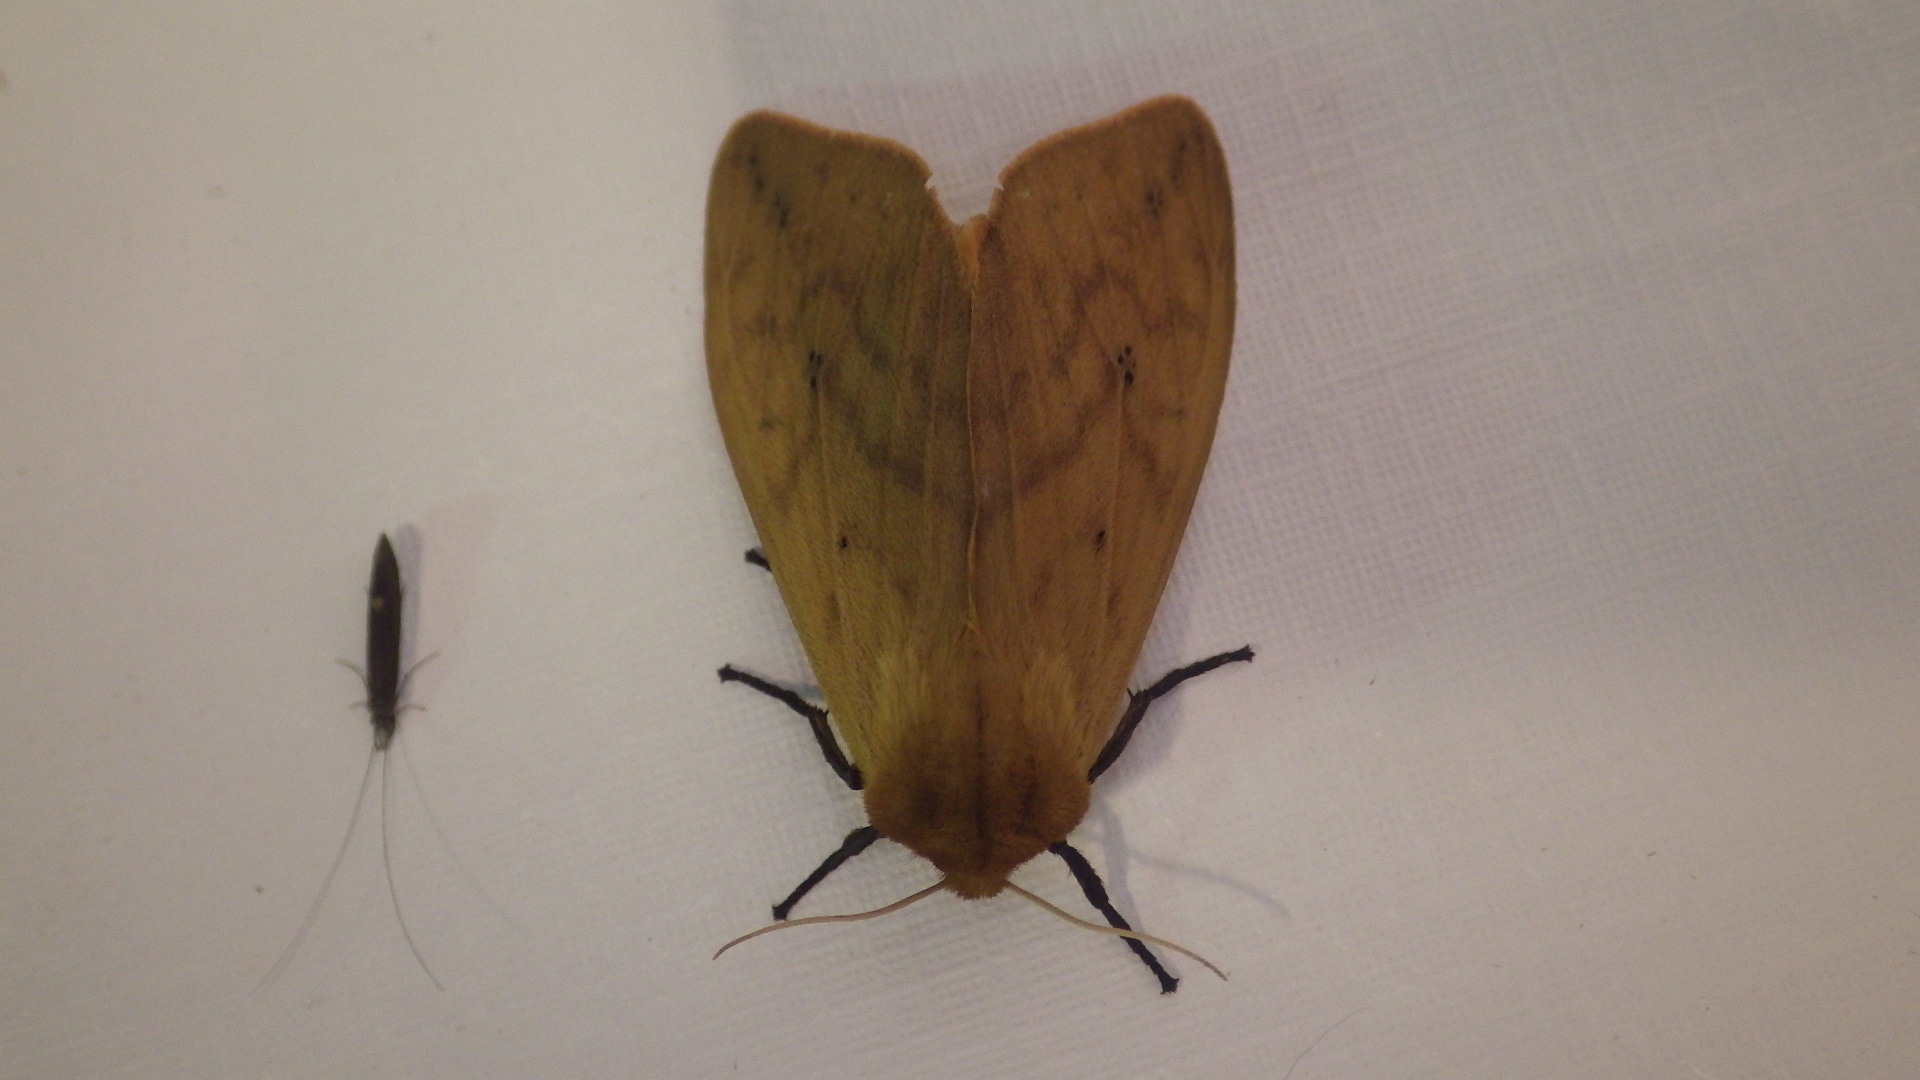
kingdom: Animalia
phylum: Arthropoda
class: Insecta
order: Lepidoptera
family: Erebidae
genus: Pyrrharctia
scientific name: Pyrrharctia isabella
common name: Isabella tiger moth
